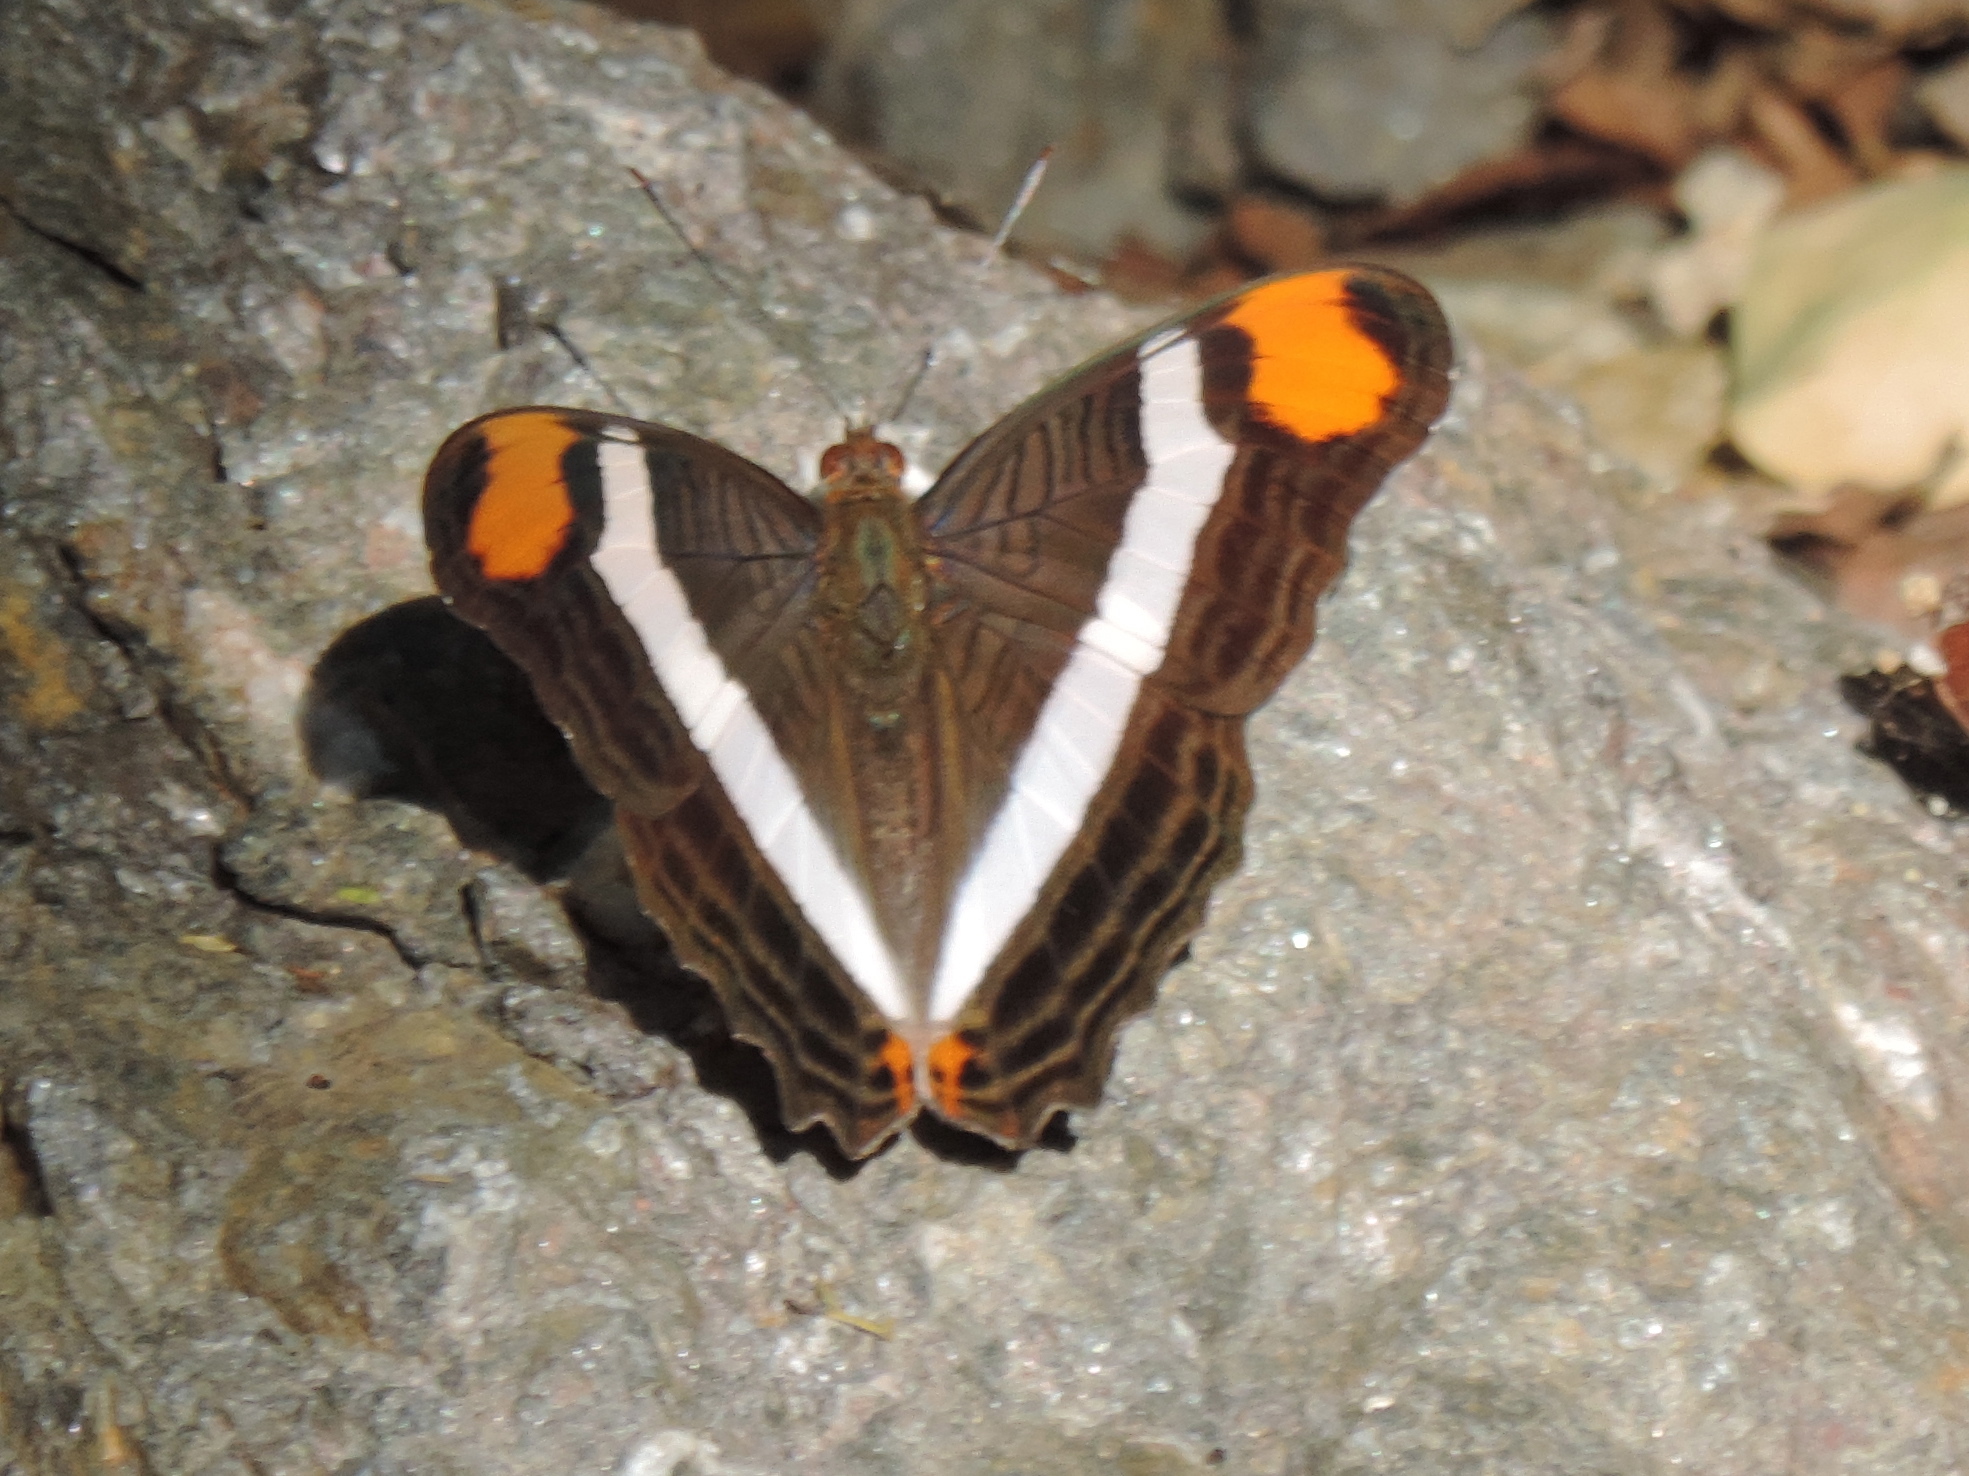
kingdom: Animalia
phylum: Arthropoda
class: Insecta
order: Lepidoptera
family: Nymphalidae
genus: Limenitis
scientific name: Limenitis fessonia
